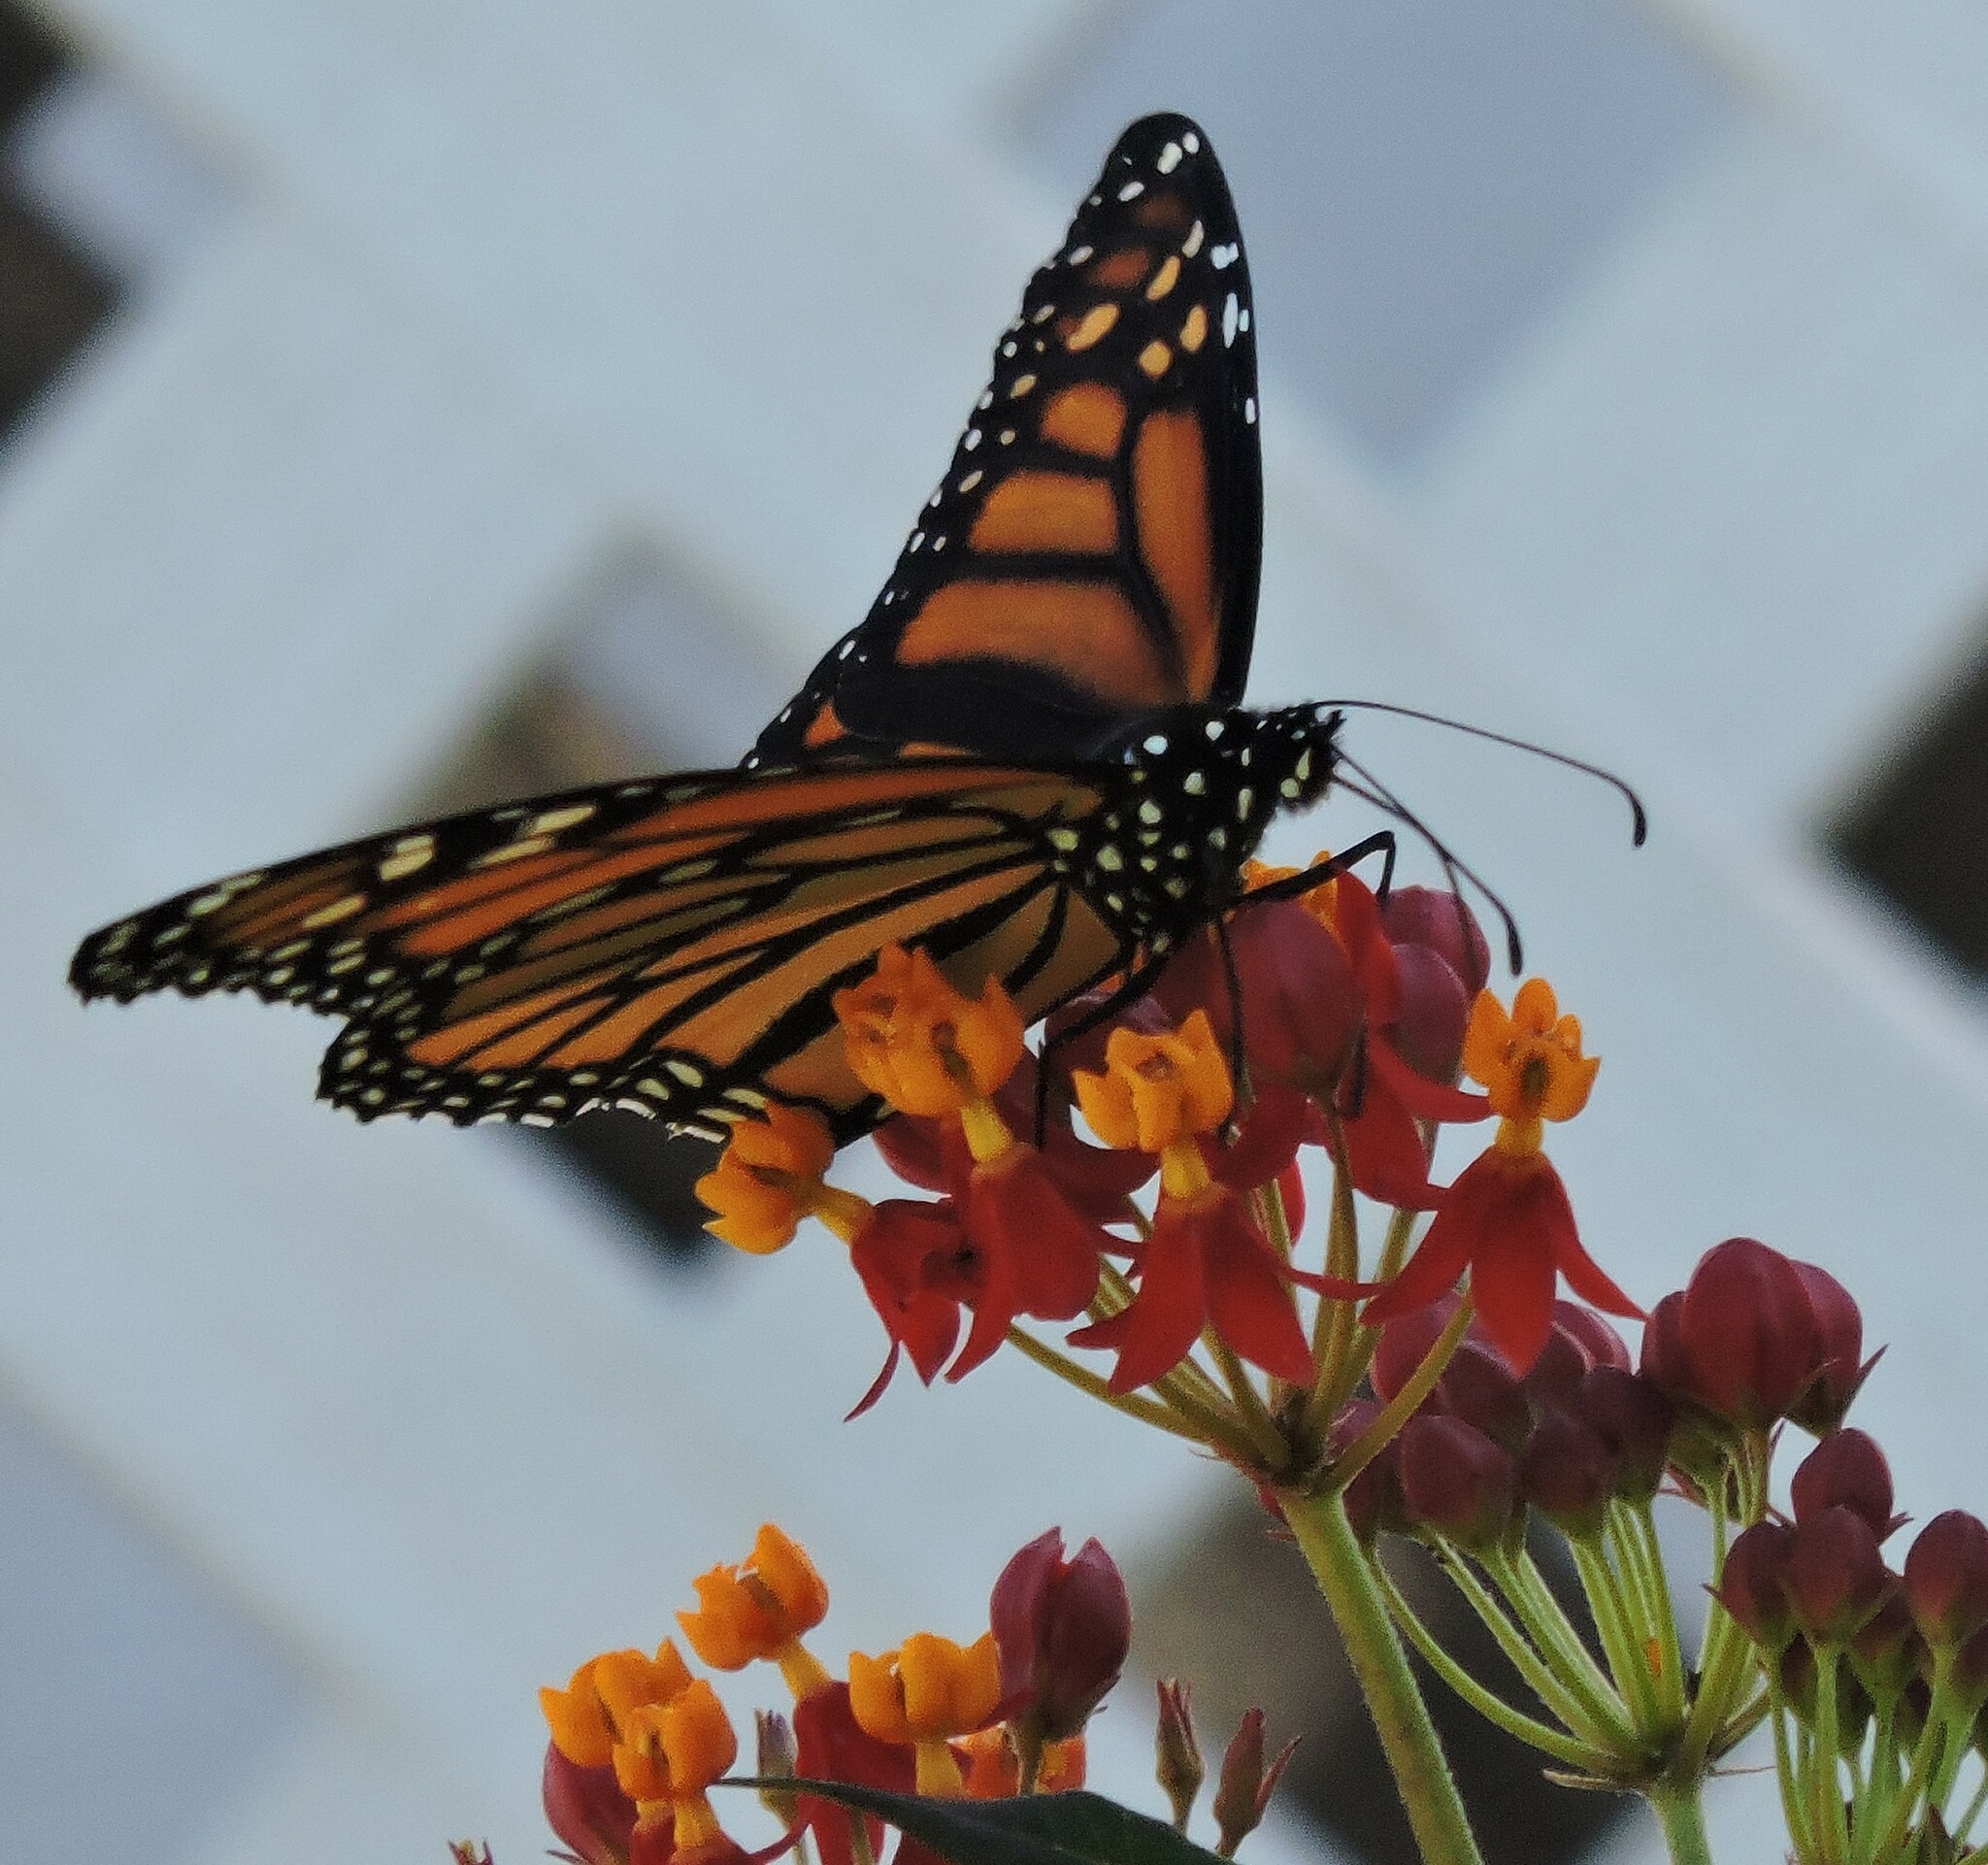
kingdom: Animalia
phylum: Arthropoda
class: Insecta
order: Lepidoptera
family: Nymphalidae
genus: Danaus
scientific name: Danaus plexippus
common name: Monarch
